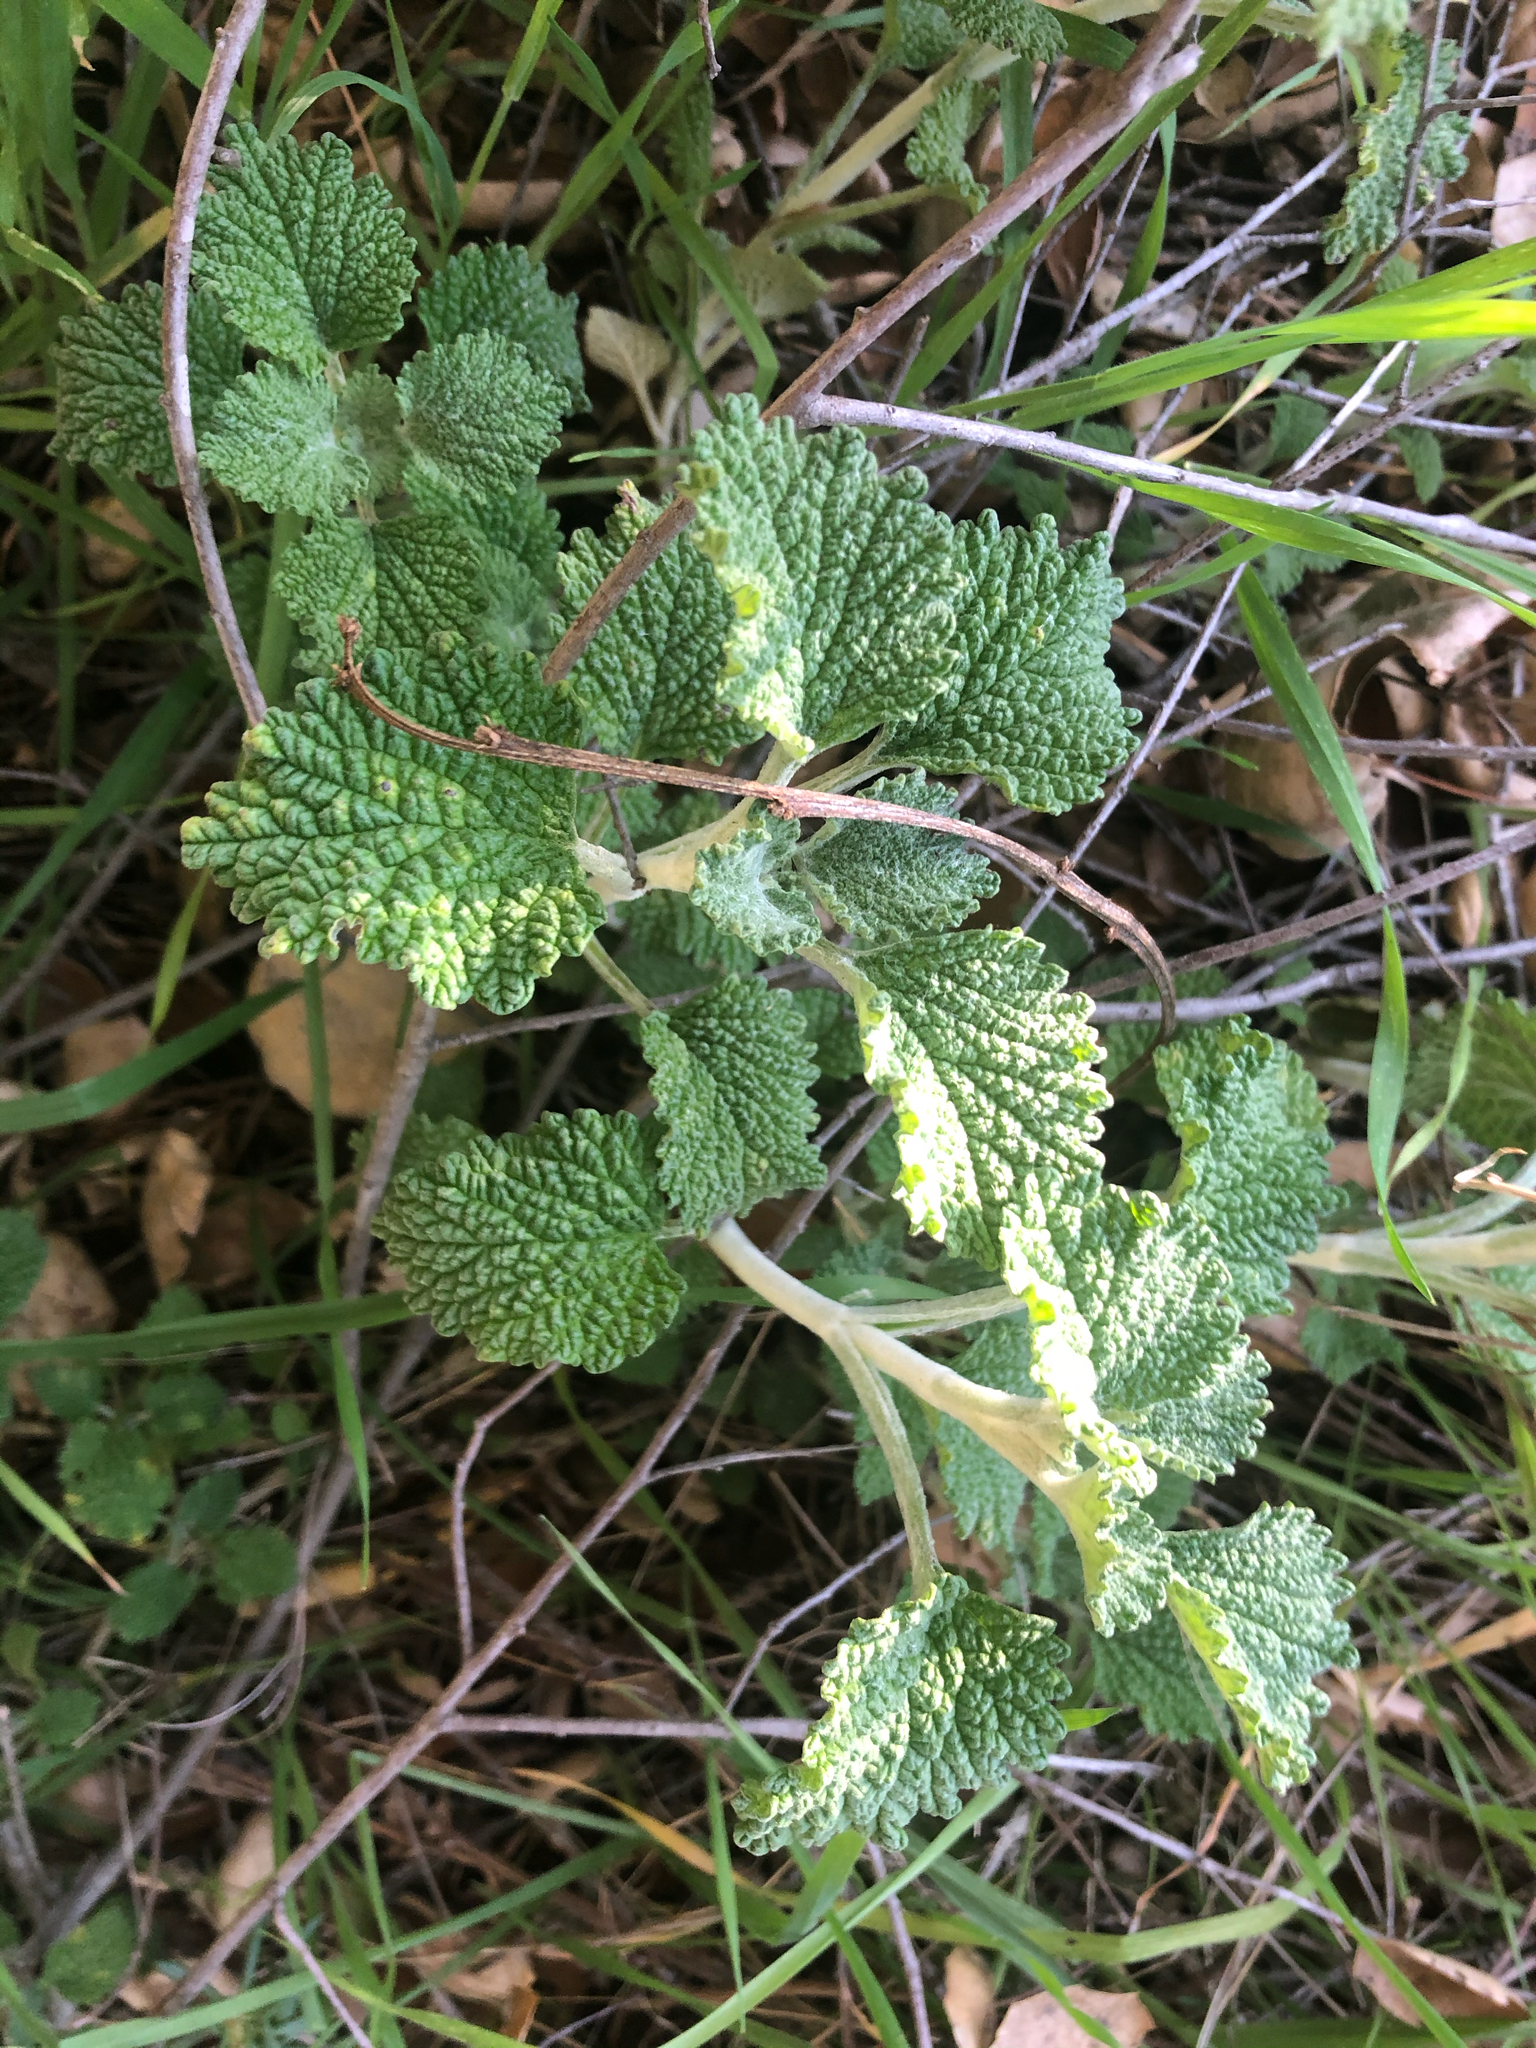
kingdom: Plantae
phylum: Tracheophyta
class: Magnoliopsida
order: Lamiales
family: Lamiaceae
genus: Marrubium
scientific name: Marrubium vulgare
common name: Horehound
